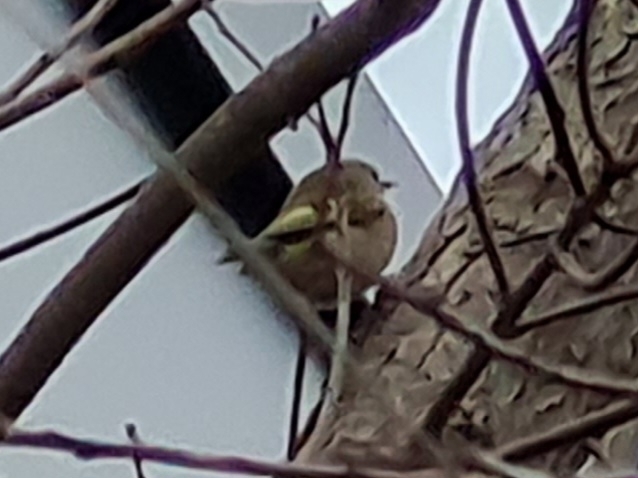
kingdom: Animalia
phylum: Chordata
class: Aves
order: Passeriformes
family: Regulidae
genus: Regulus
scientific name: Regulus regulus
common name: Goldcrest
